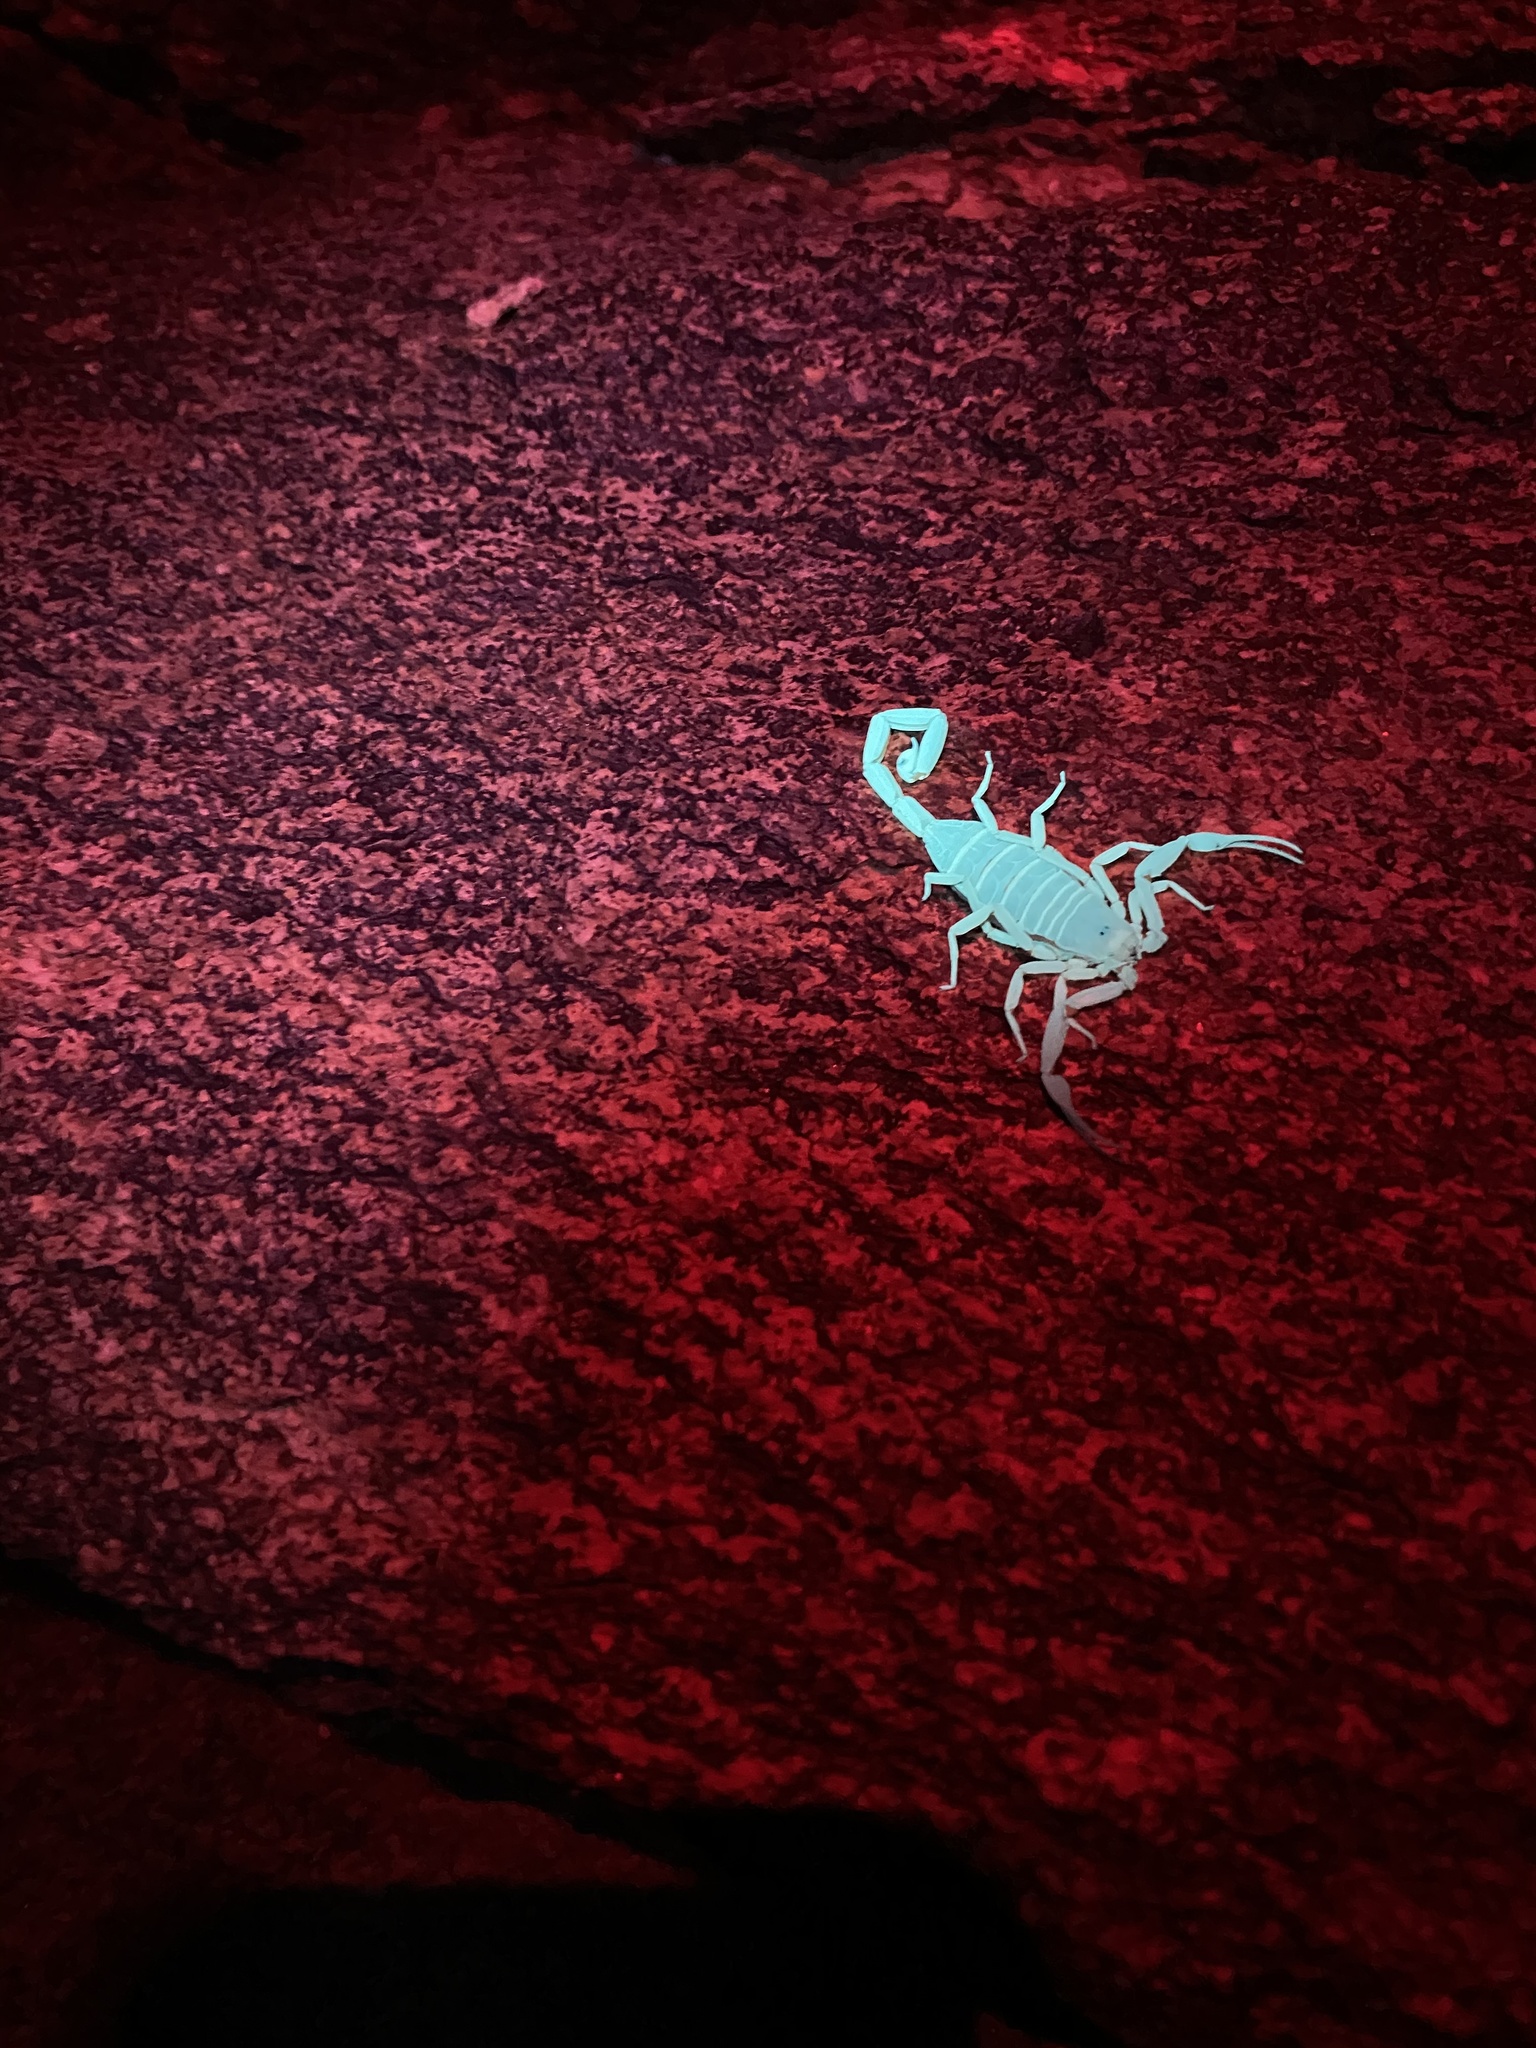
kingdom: Animalia
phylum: Arthropoda
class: Arachnida
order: Scorpiones
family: Buthidae
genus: Centruroides
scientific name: Centruroides sculpturatus
